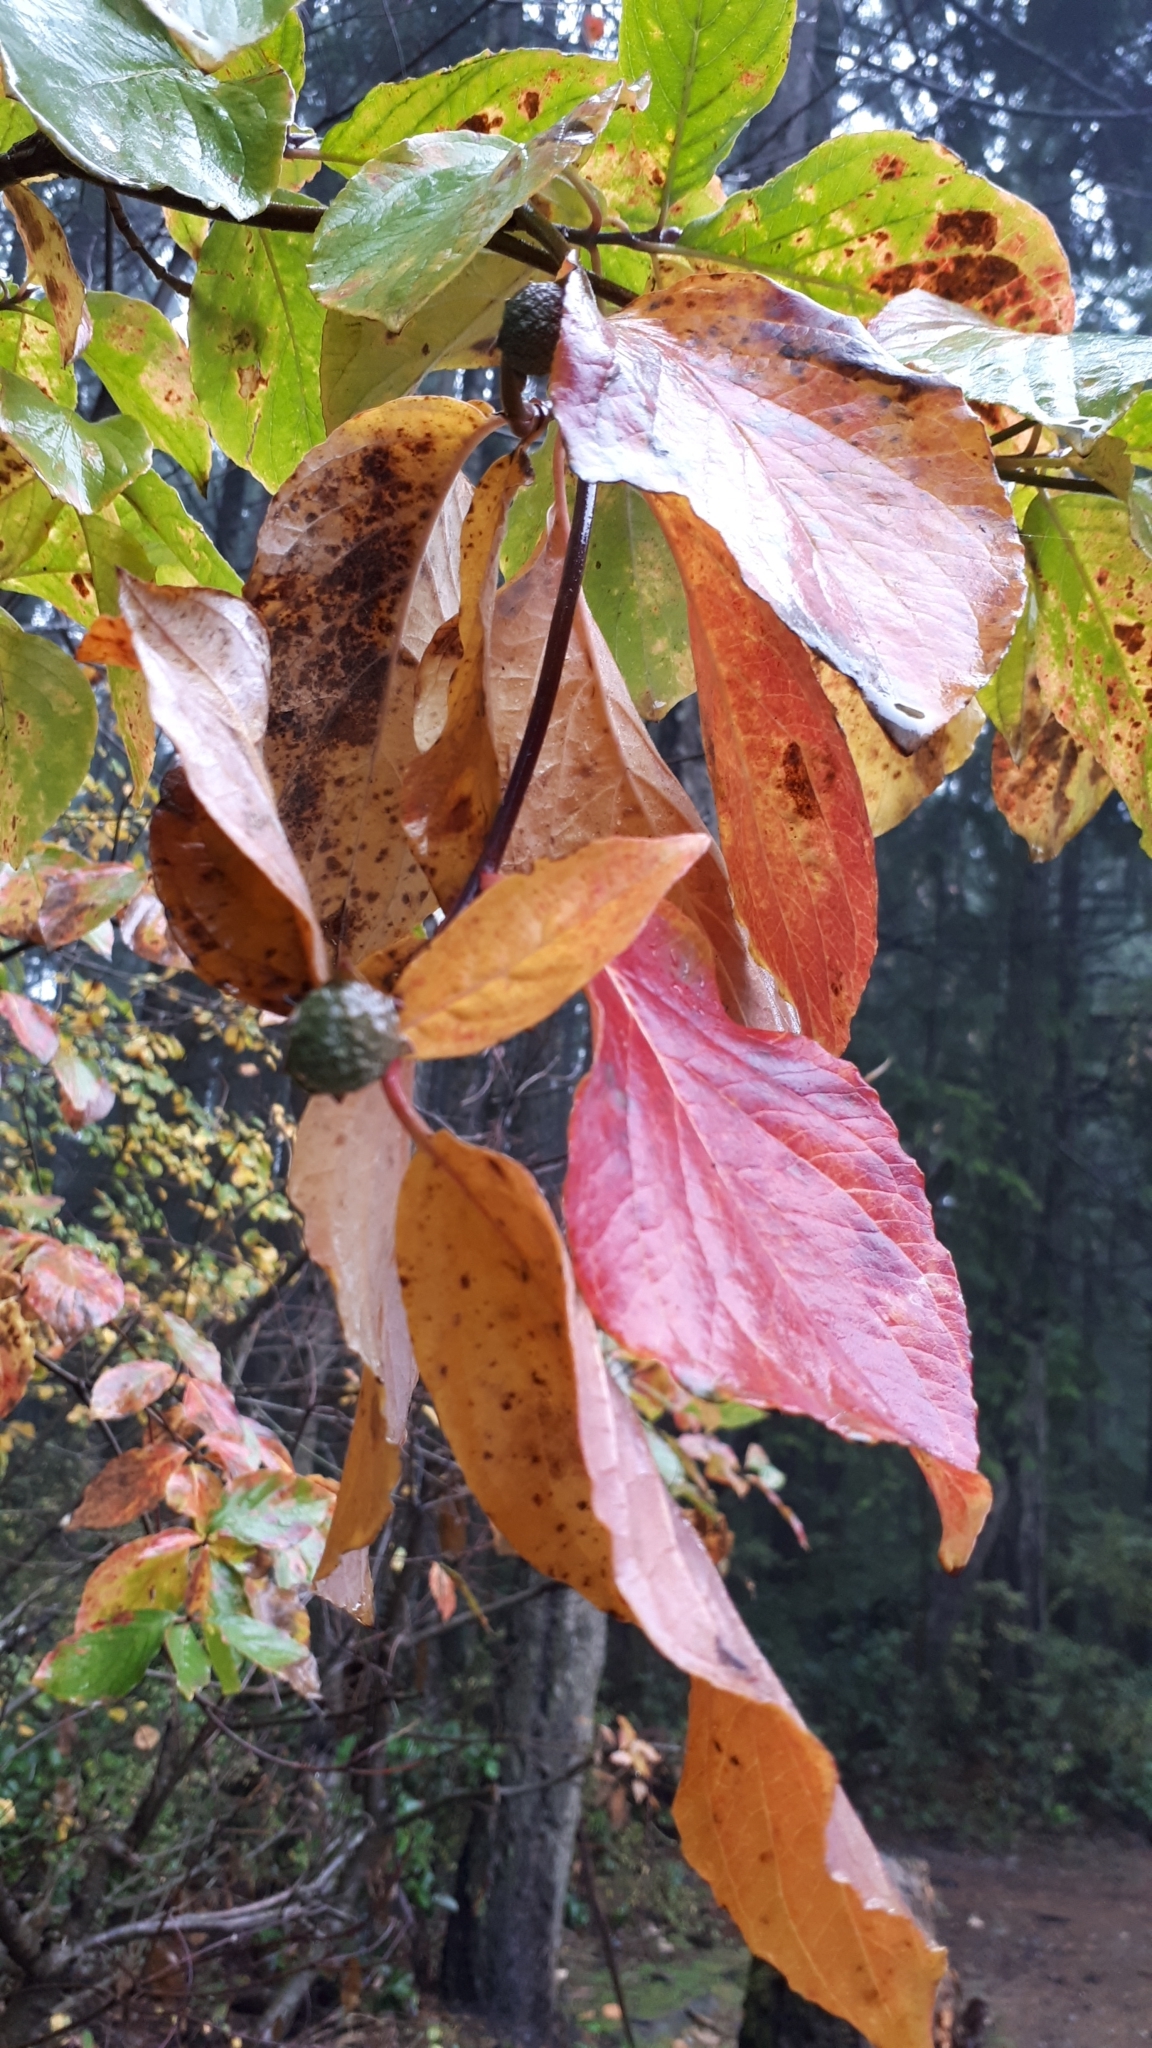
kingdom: Plantae
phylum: Tracheophyta
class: Magnoliopsida
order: Cornales
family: Cornaceae
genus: Cornus
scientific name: Cornus nuttallii
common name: Pacific dogwood
